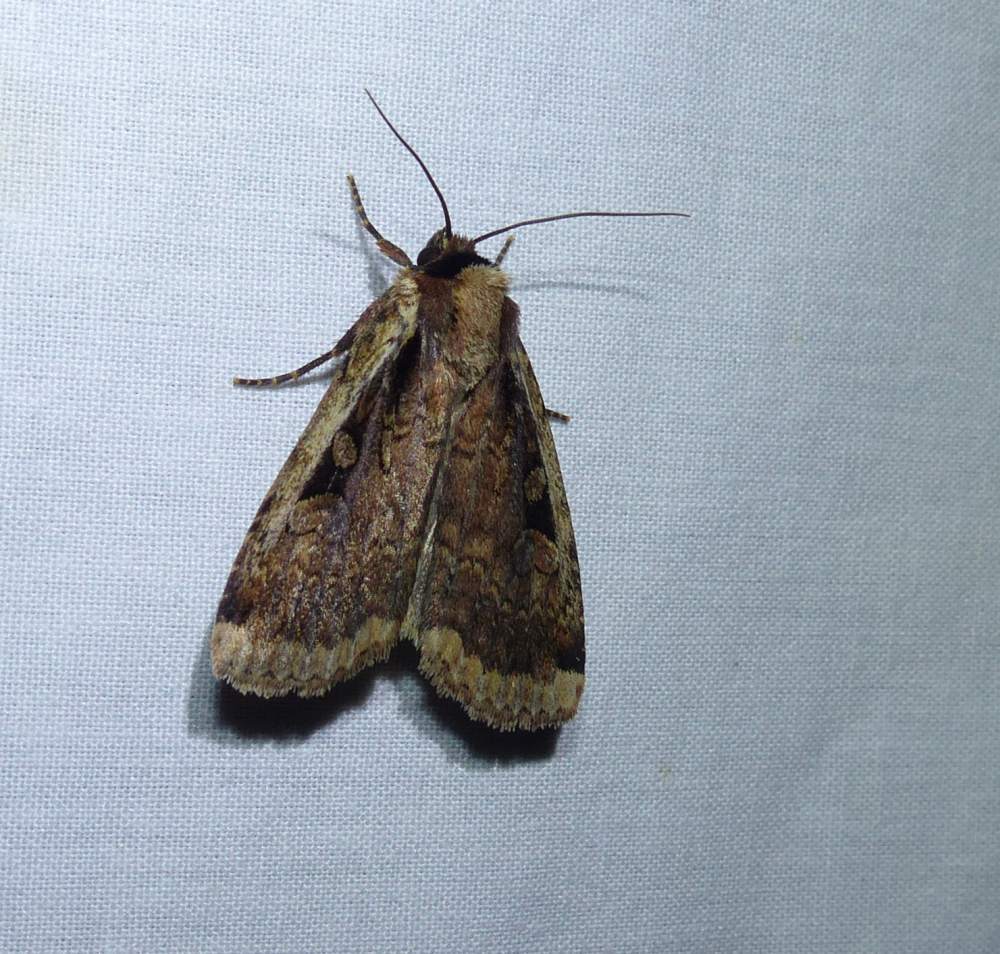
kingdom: Animalia
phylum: Arthropoda
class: Insecta
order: Lepidoptera
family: Noctuidae
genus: Eueretagrotis
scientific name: Eueretagrotis sigmoides
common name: Sigmoid dart
